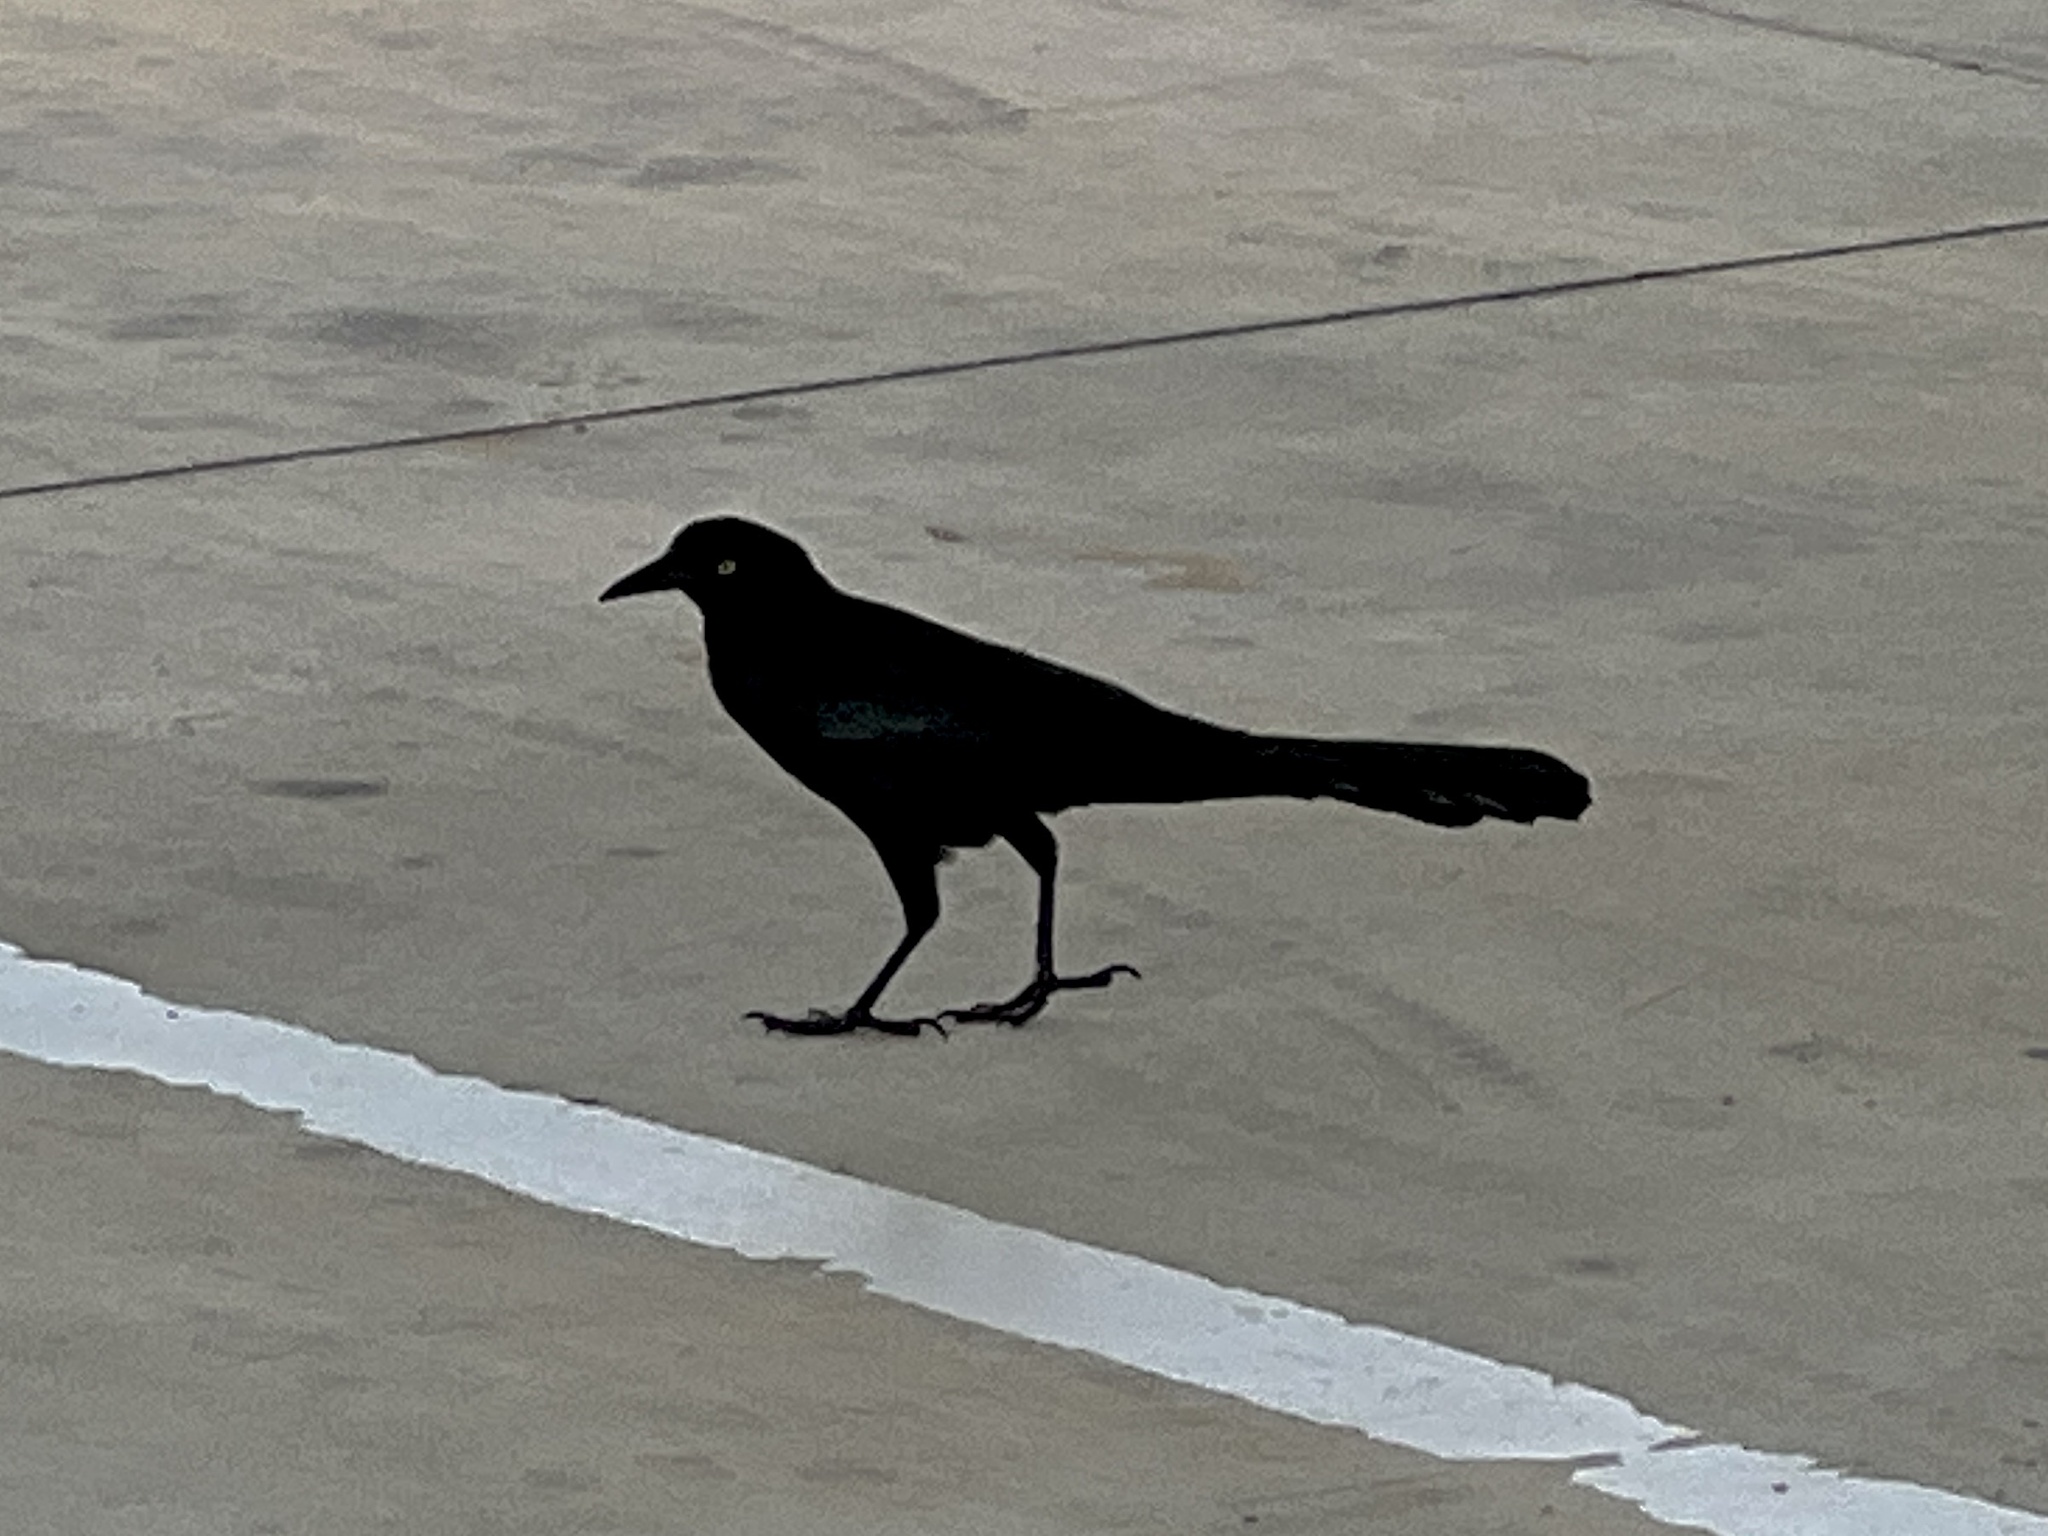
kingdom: Animalia
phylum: Chordata
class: Aves
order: Passeriformes
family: Icteridae
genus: Quiscalus
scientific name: Quiscalus mexicanus
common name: Great-tailed grackle
